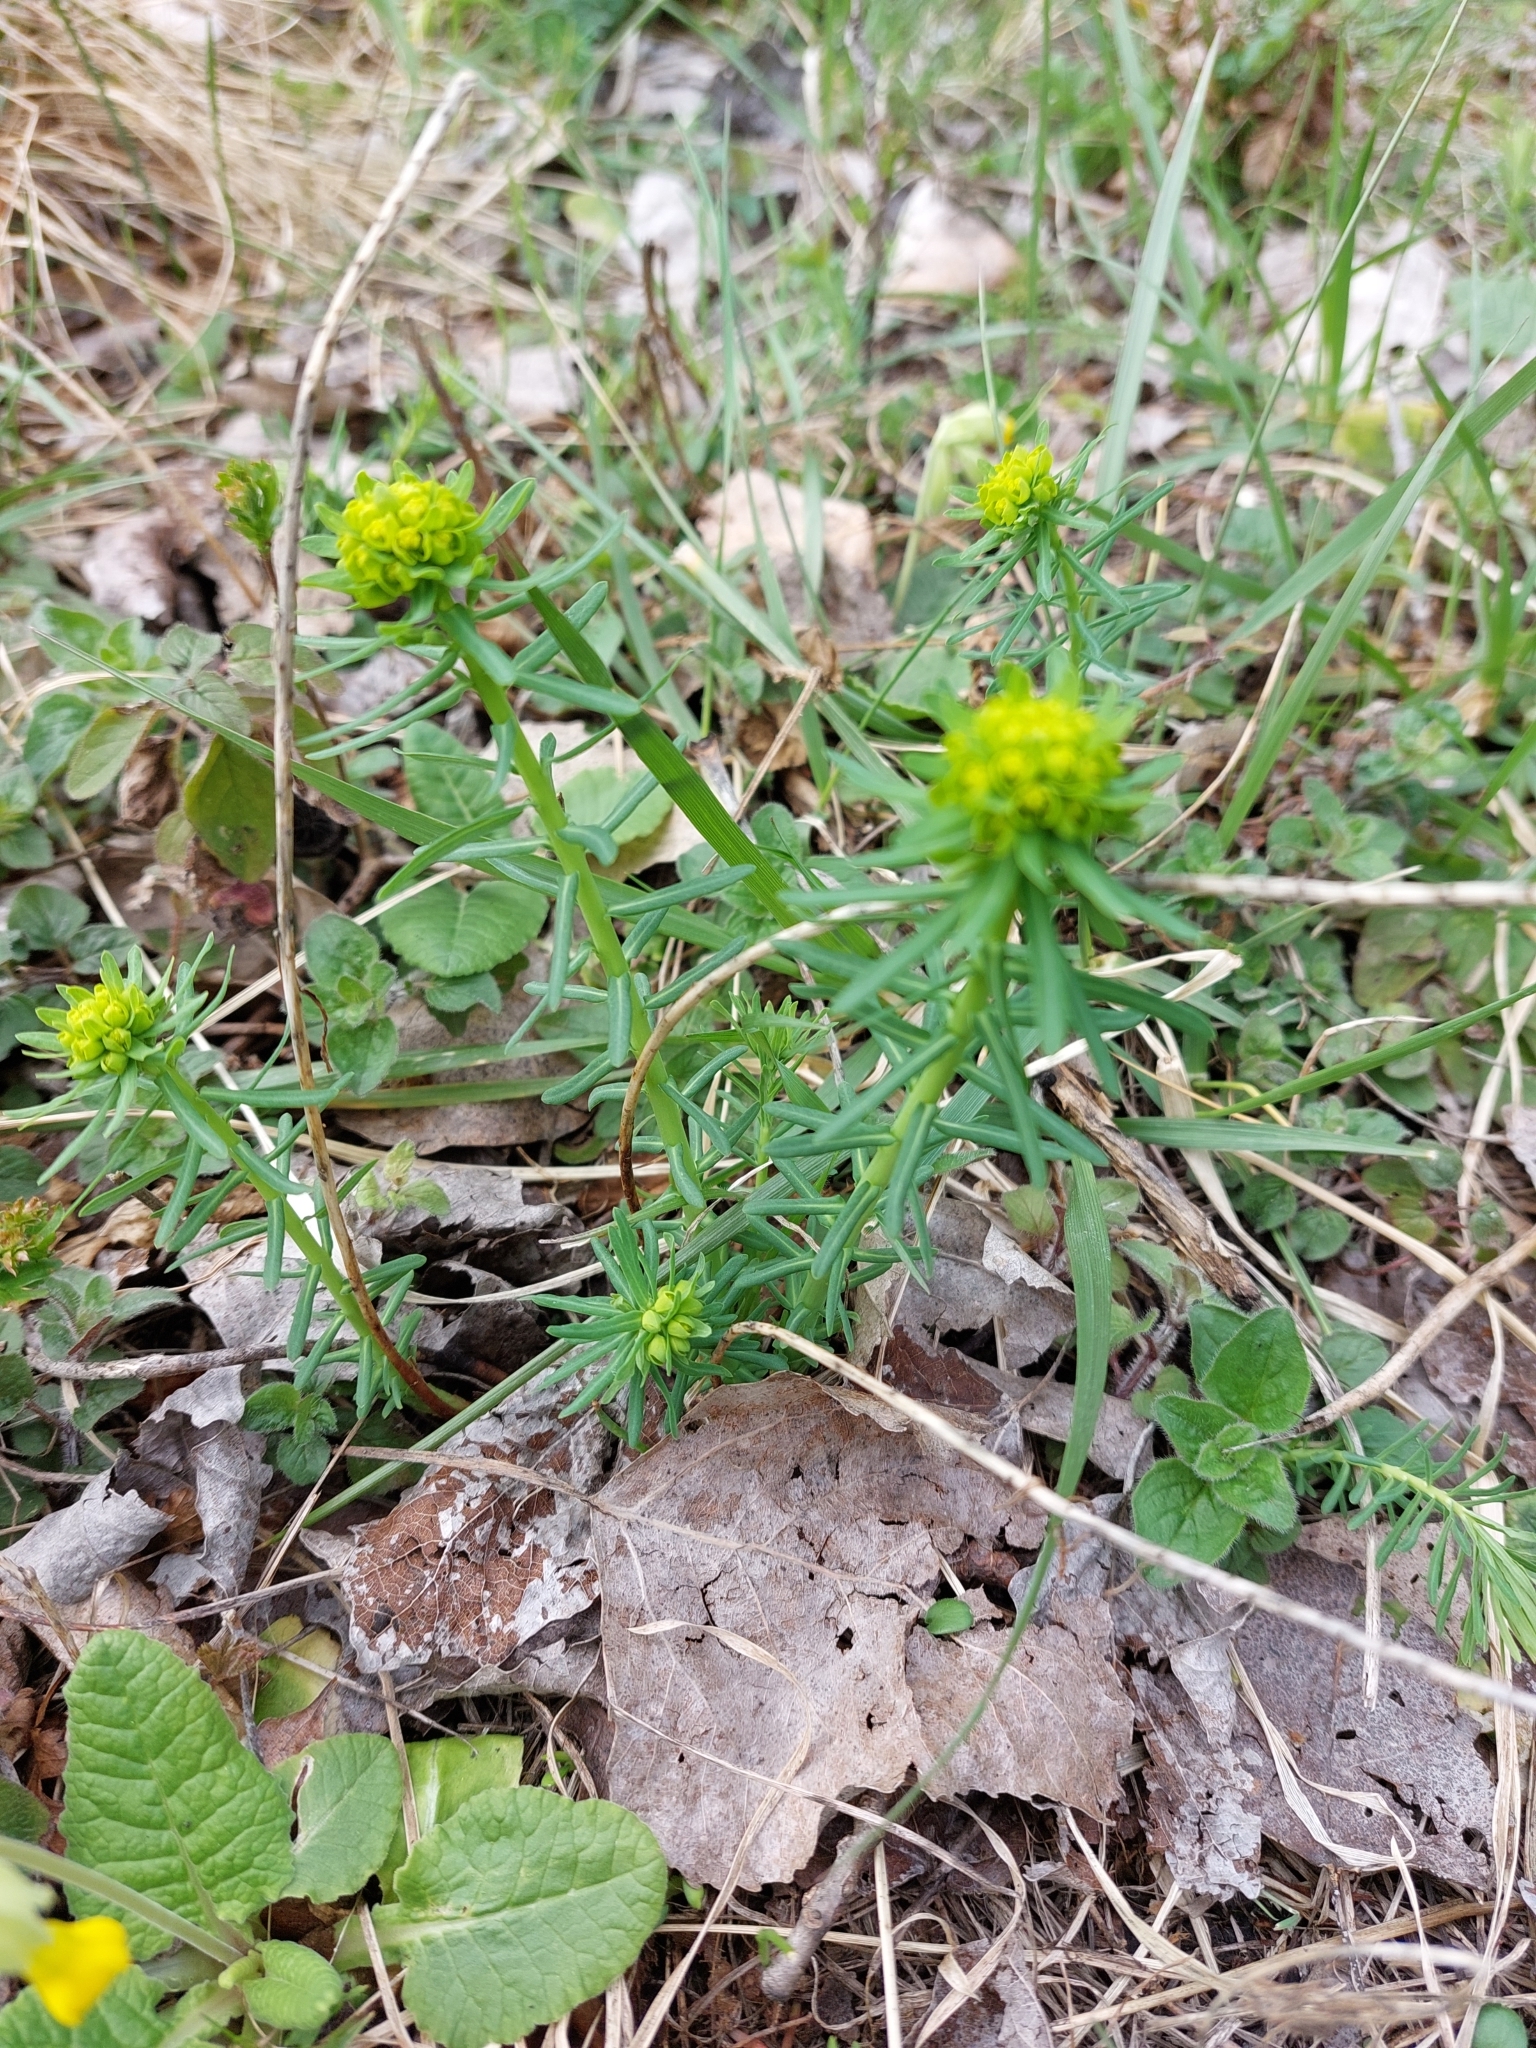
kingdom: Plantae
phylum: Tracheophyta
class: Magnoliopsida
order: Malpighiales
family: Euphorbiaceae
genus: Euphorbia
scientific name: Euphorbia cyparissias
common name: Cypress spurge
